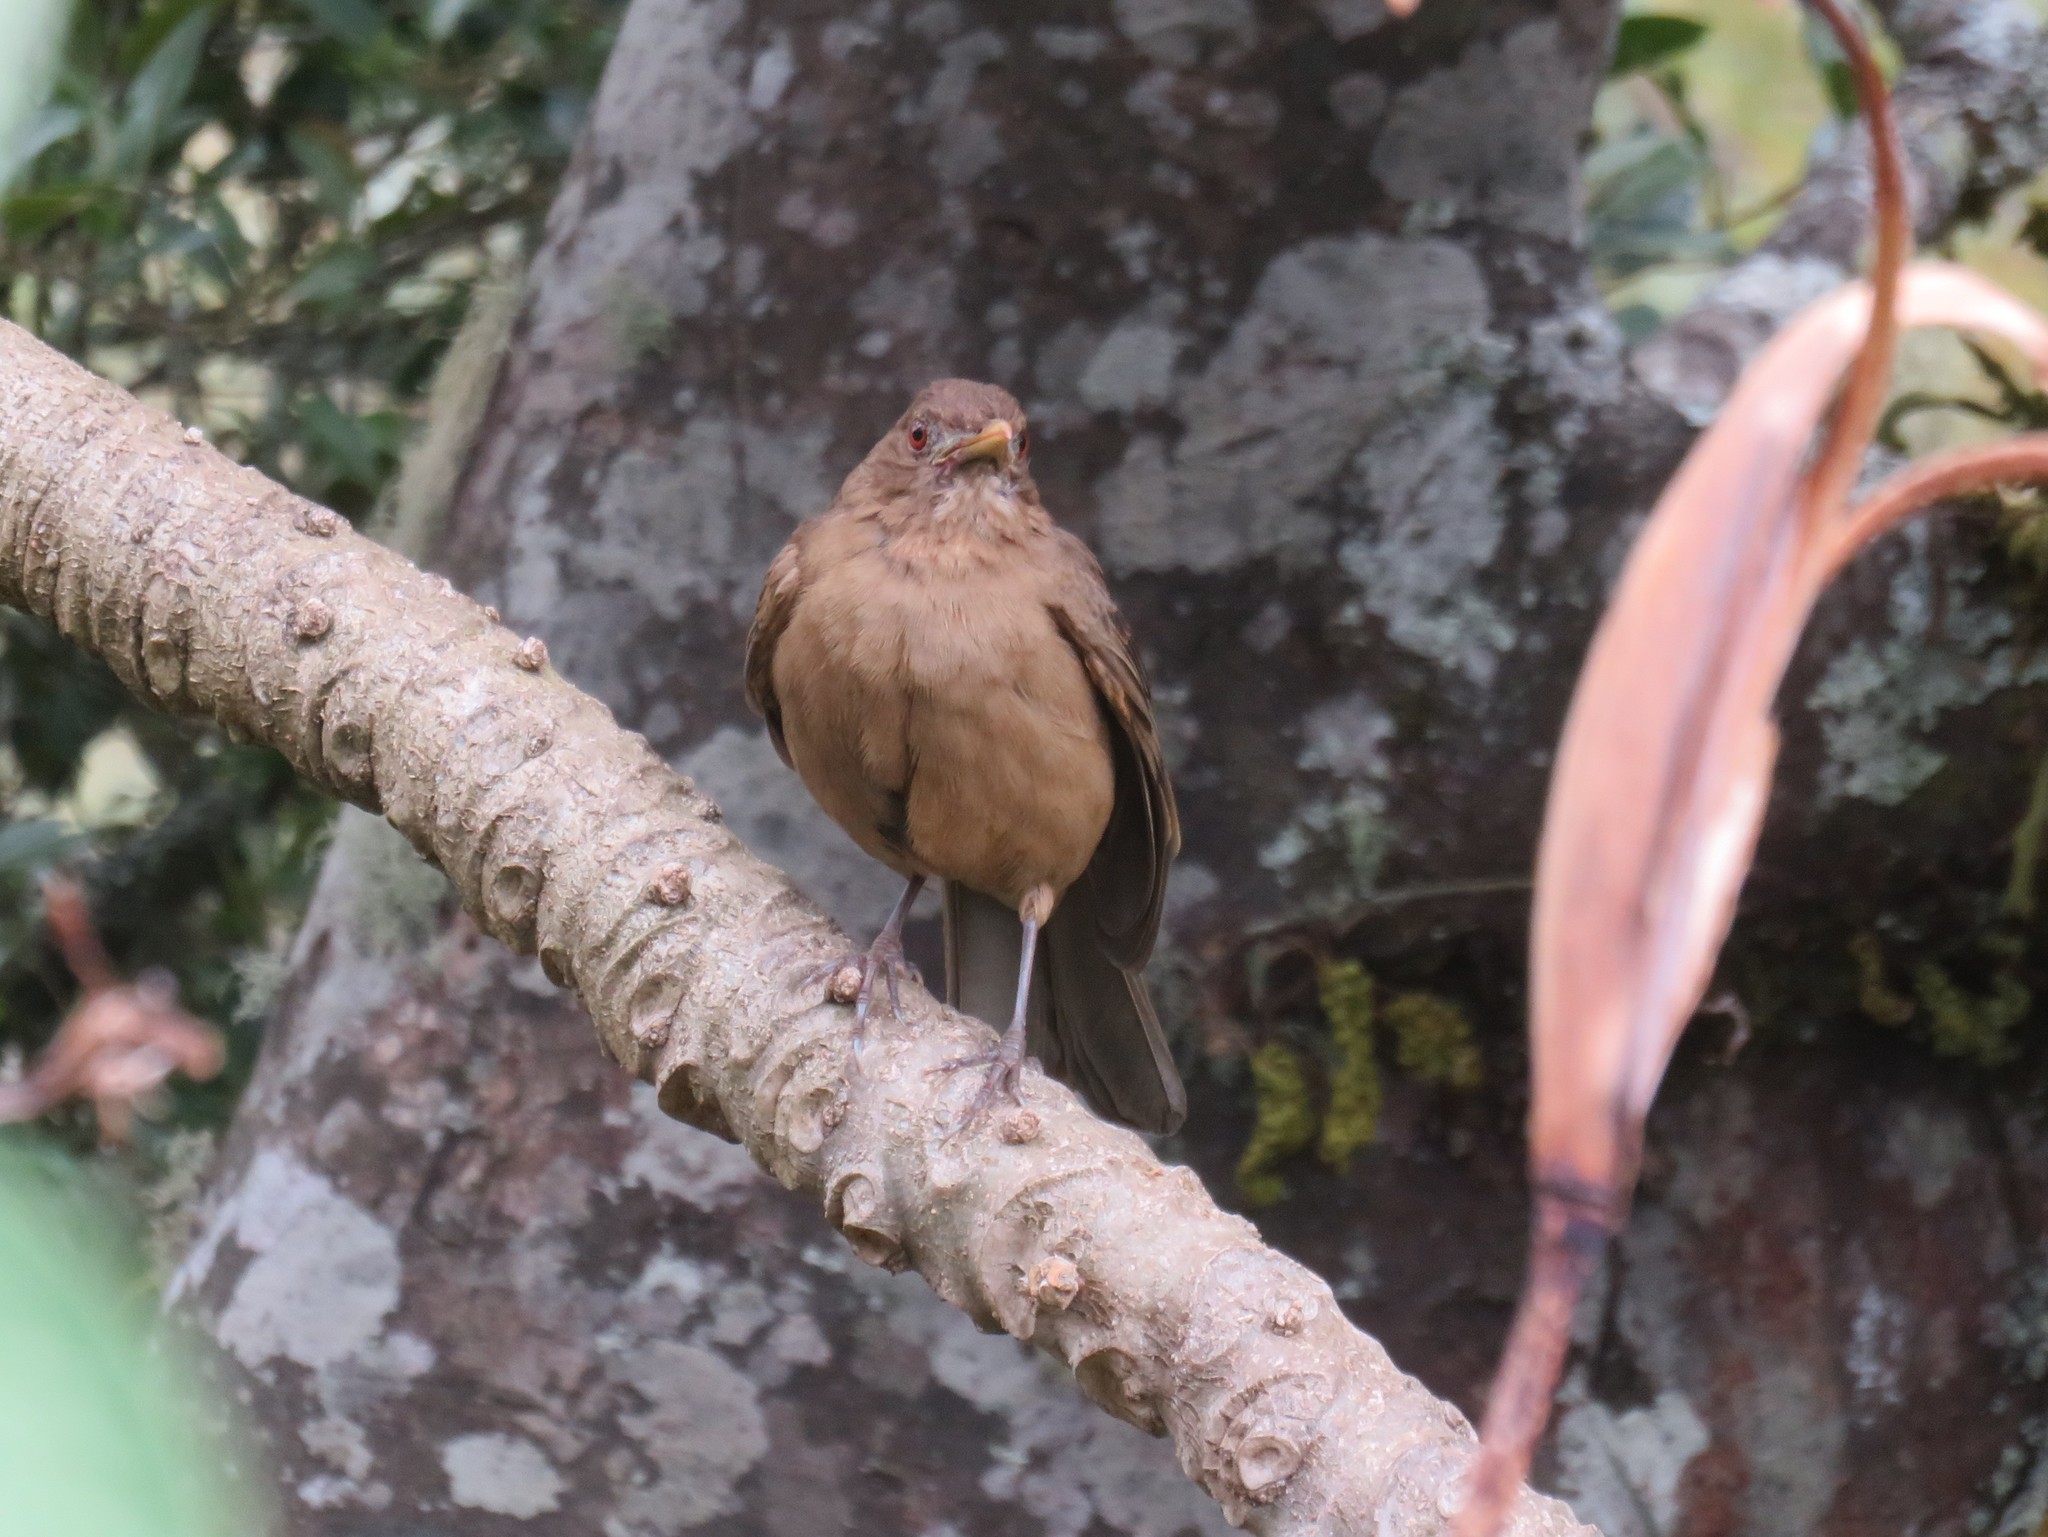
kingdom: Animalia
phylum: Chordata
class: Aves
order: Passeriformes
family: Turdidae
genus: Turdus
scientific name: Turdus grayi
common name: Clay-colored thrush
